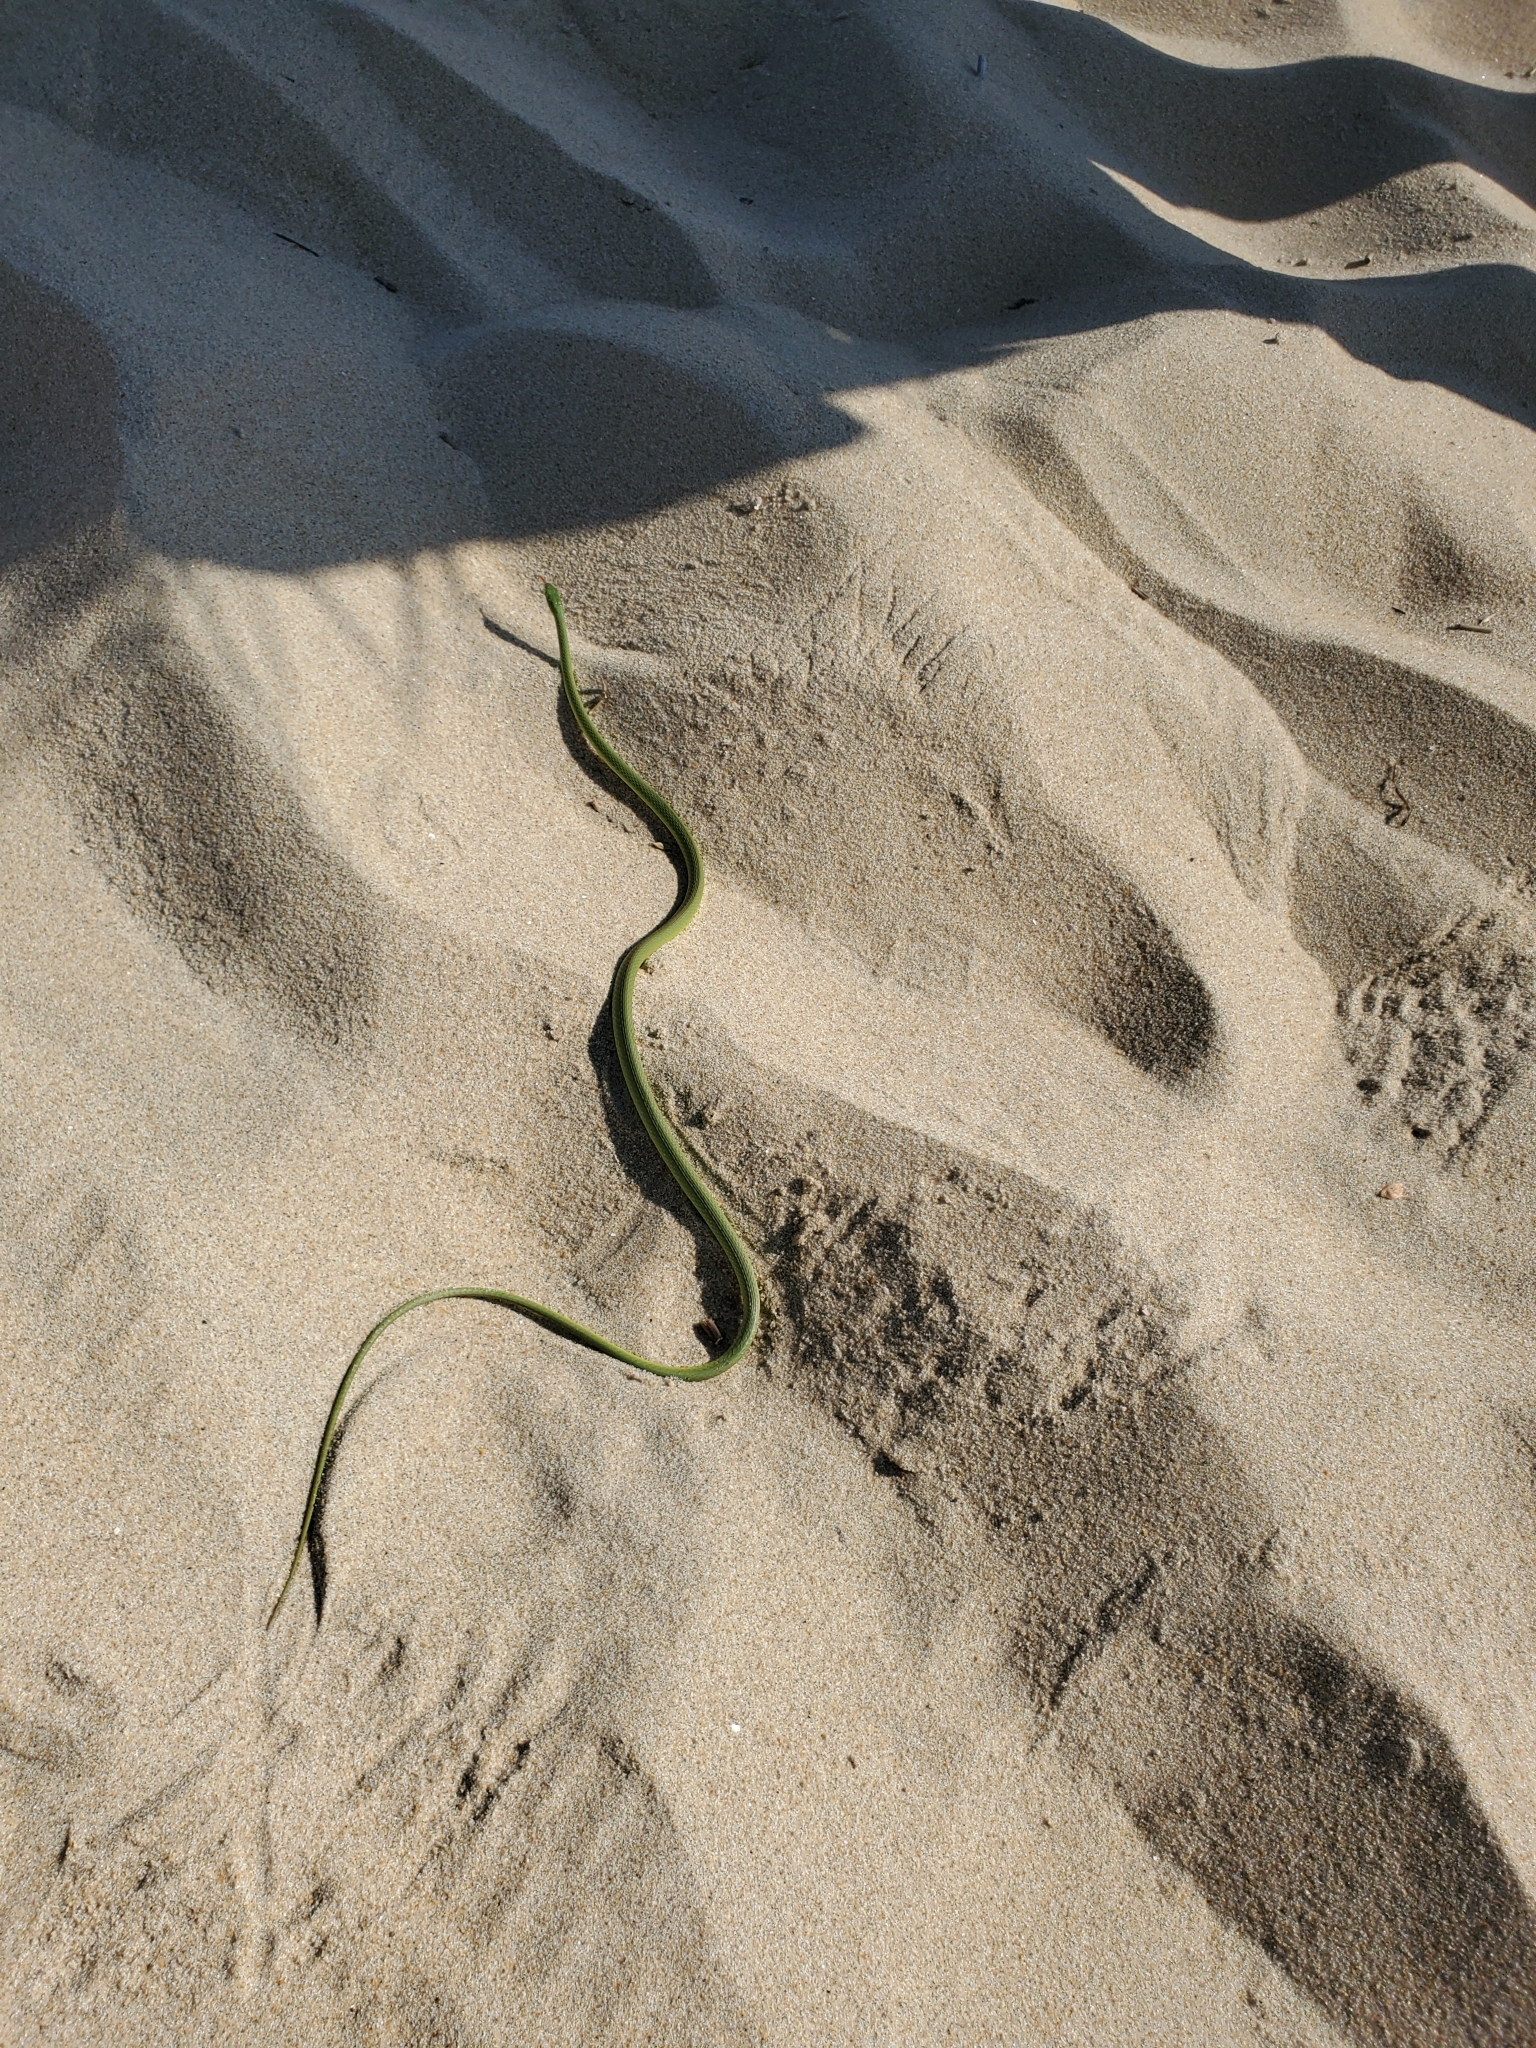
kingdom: Animalia
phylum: Chordata
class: Squamata
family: Colubridae
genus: Opheodrys
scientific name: Opheodrys aestivus
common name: Rough greensnake
